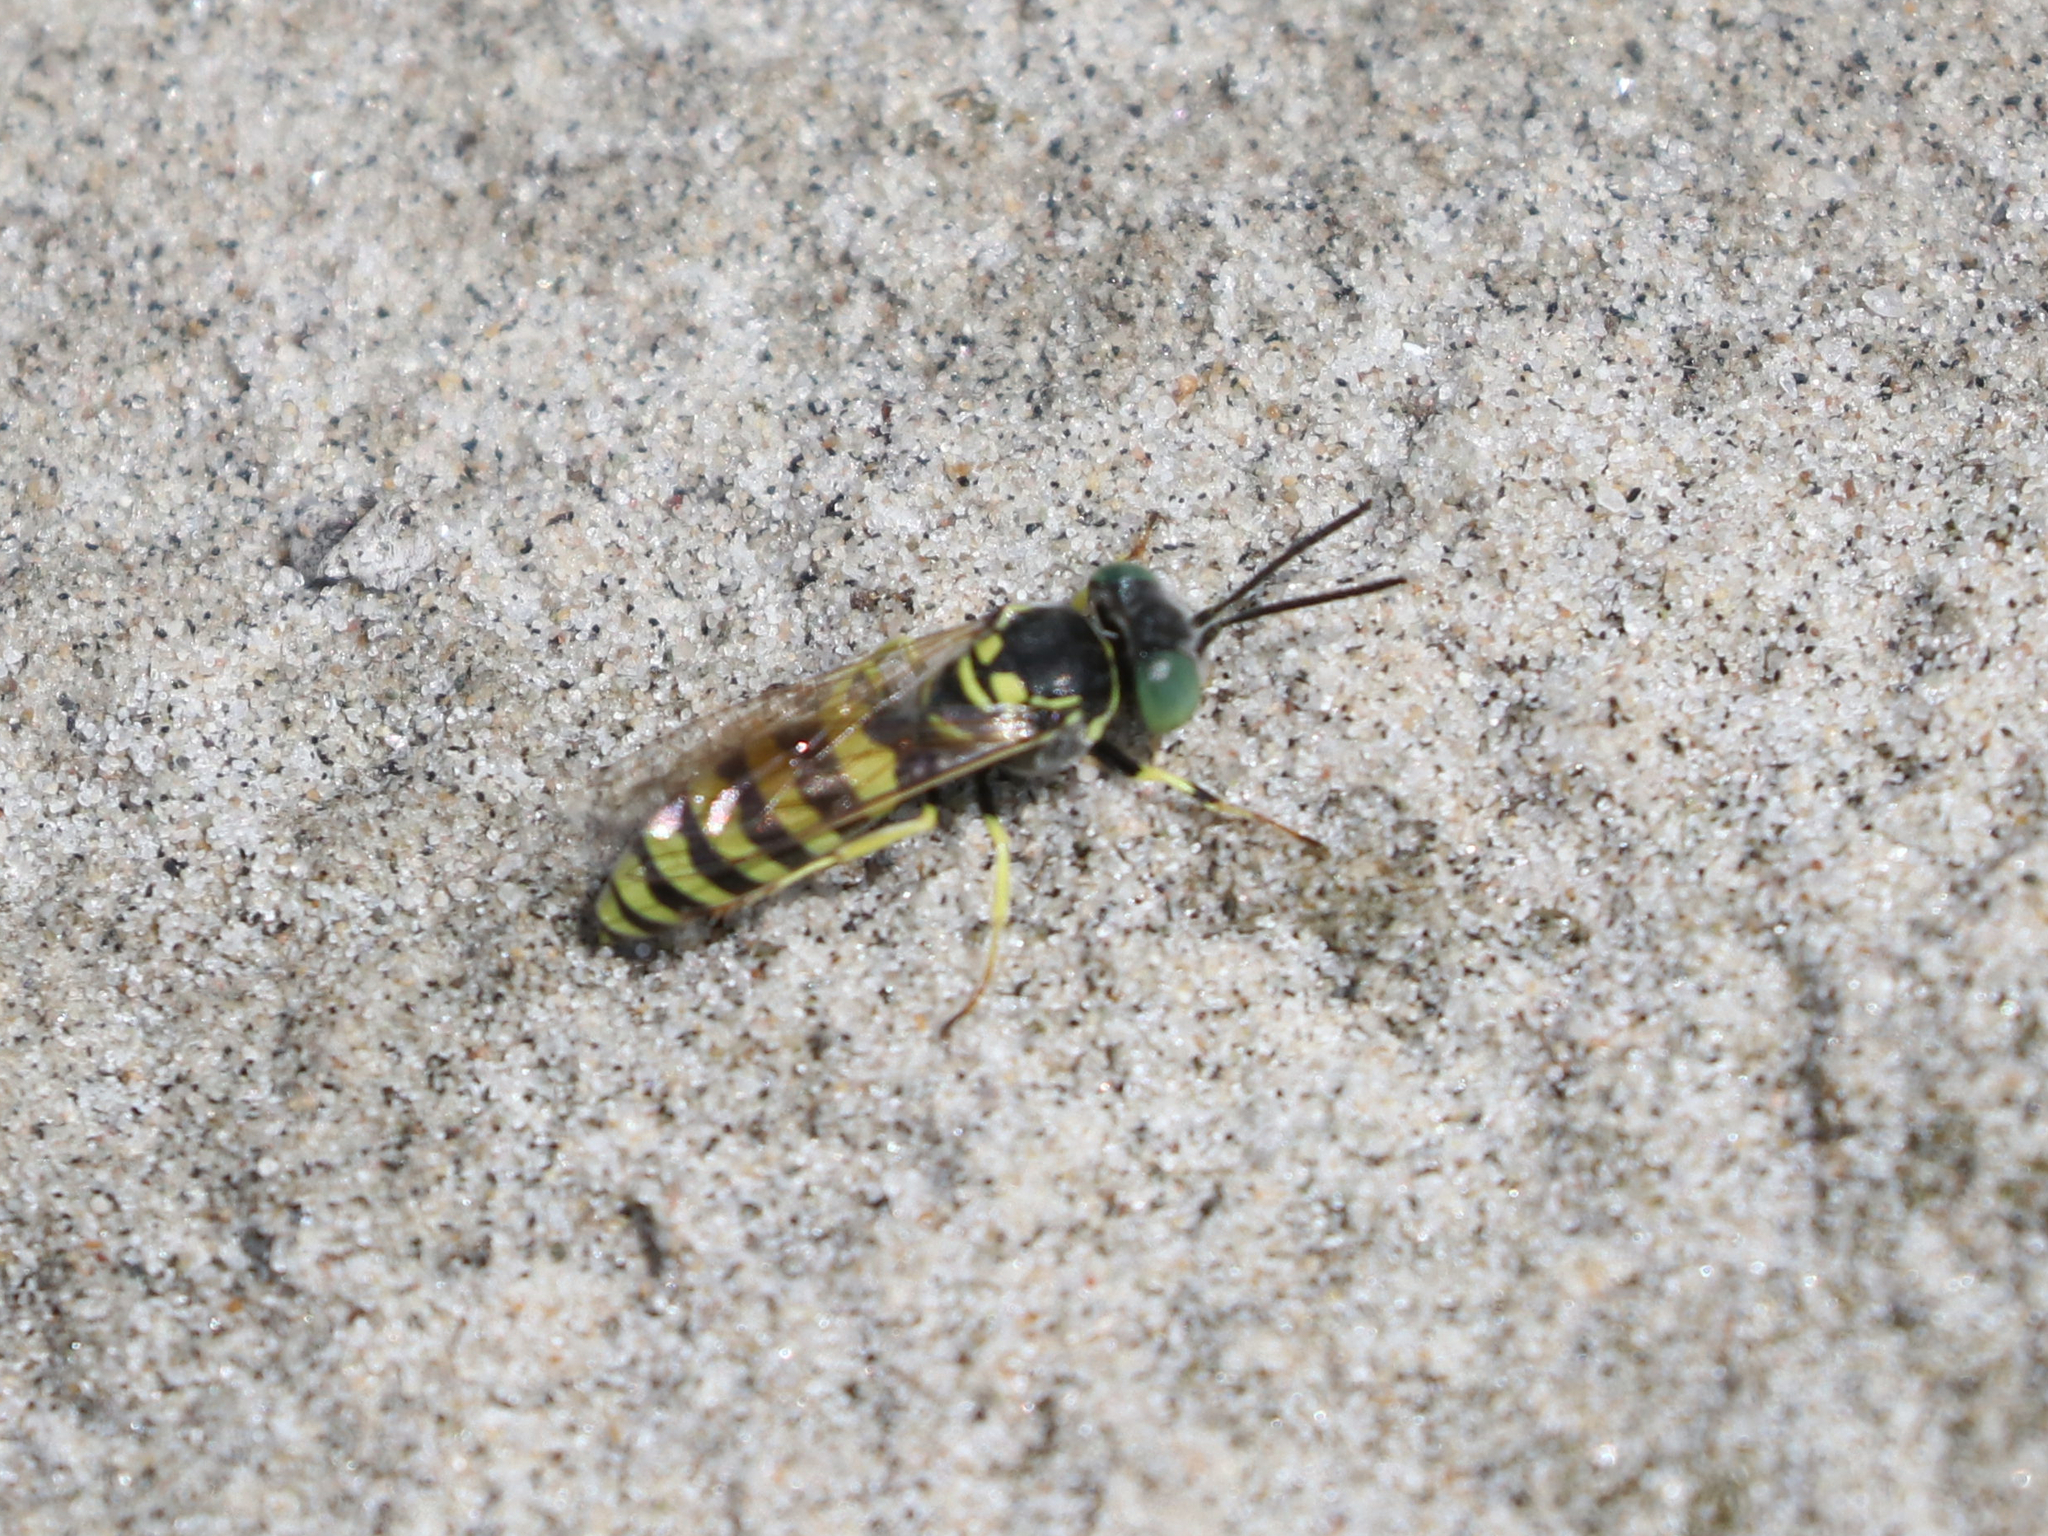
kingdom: Animalia
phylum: Arthropoda
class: Insecta
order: Hymenoptera
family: Crabronidae
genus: Microbembex
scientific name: Microbembex monodonta
